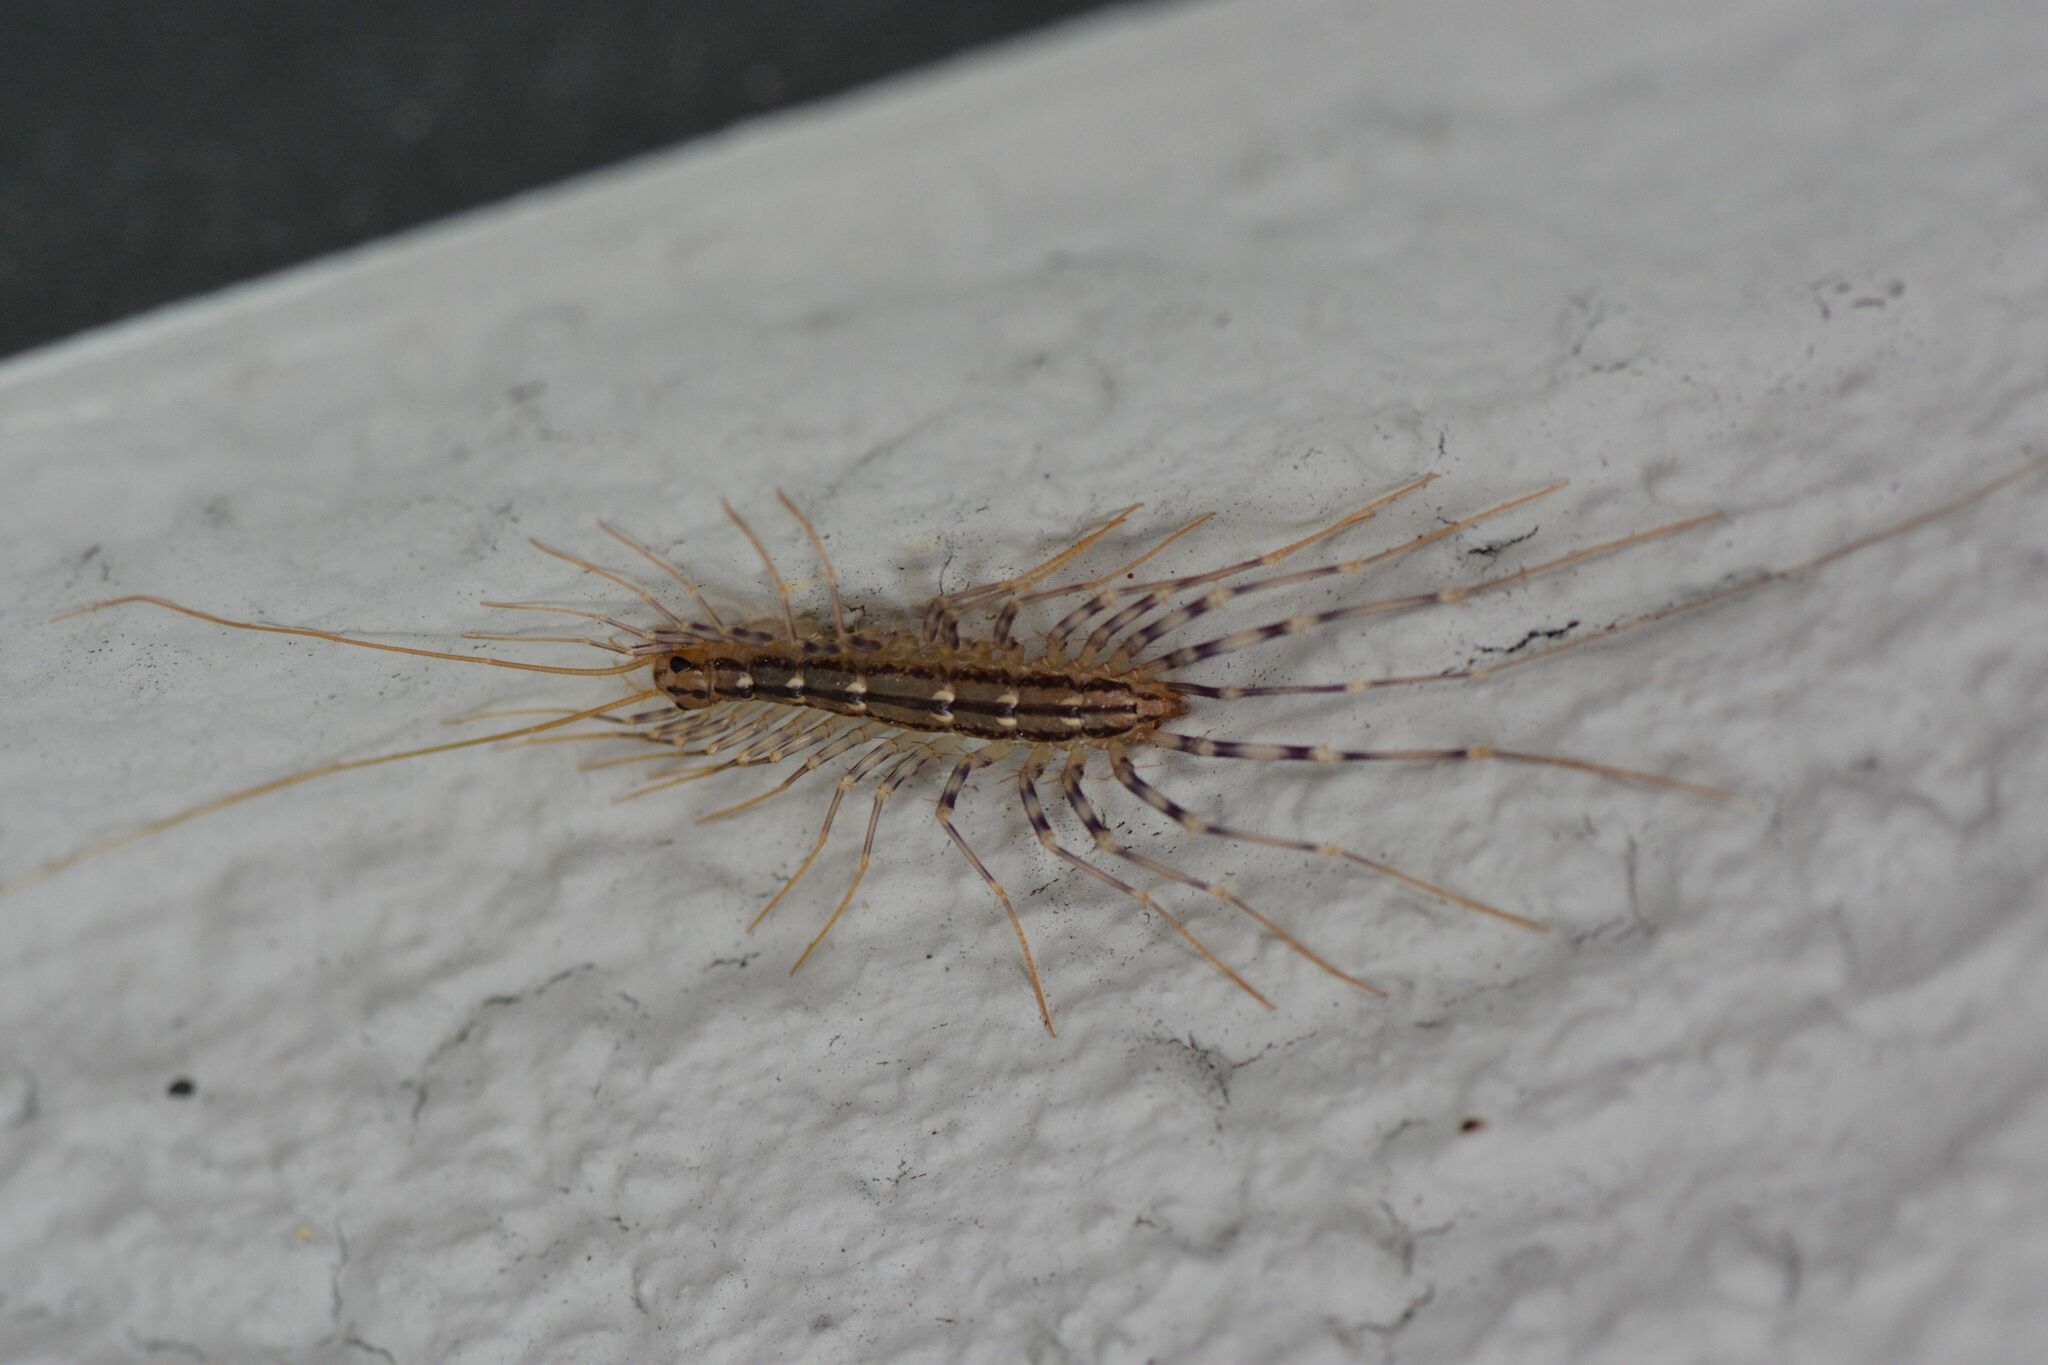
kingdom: Animalia
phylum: Arthropoda
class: Chilopoda
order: Scutigeromorpha
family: Scutigeridae
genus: Scutigera
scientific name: Scutigera coleoptrata
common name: House centipede
